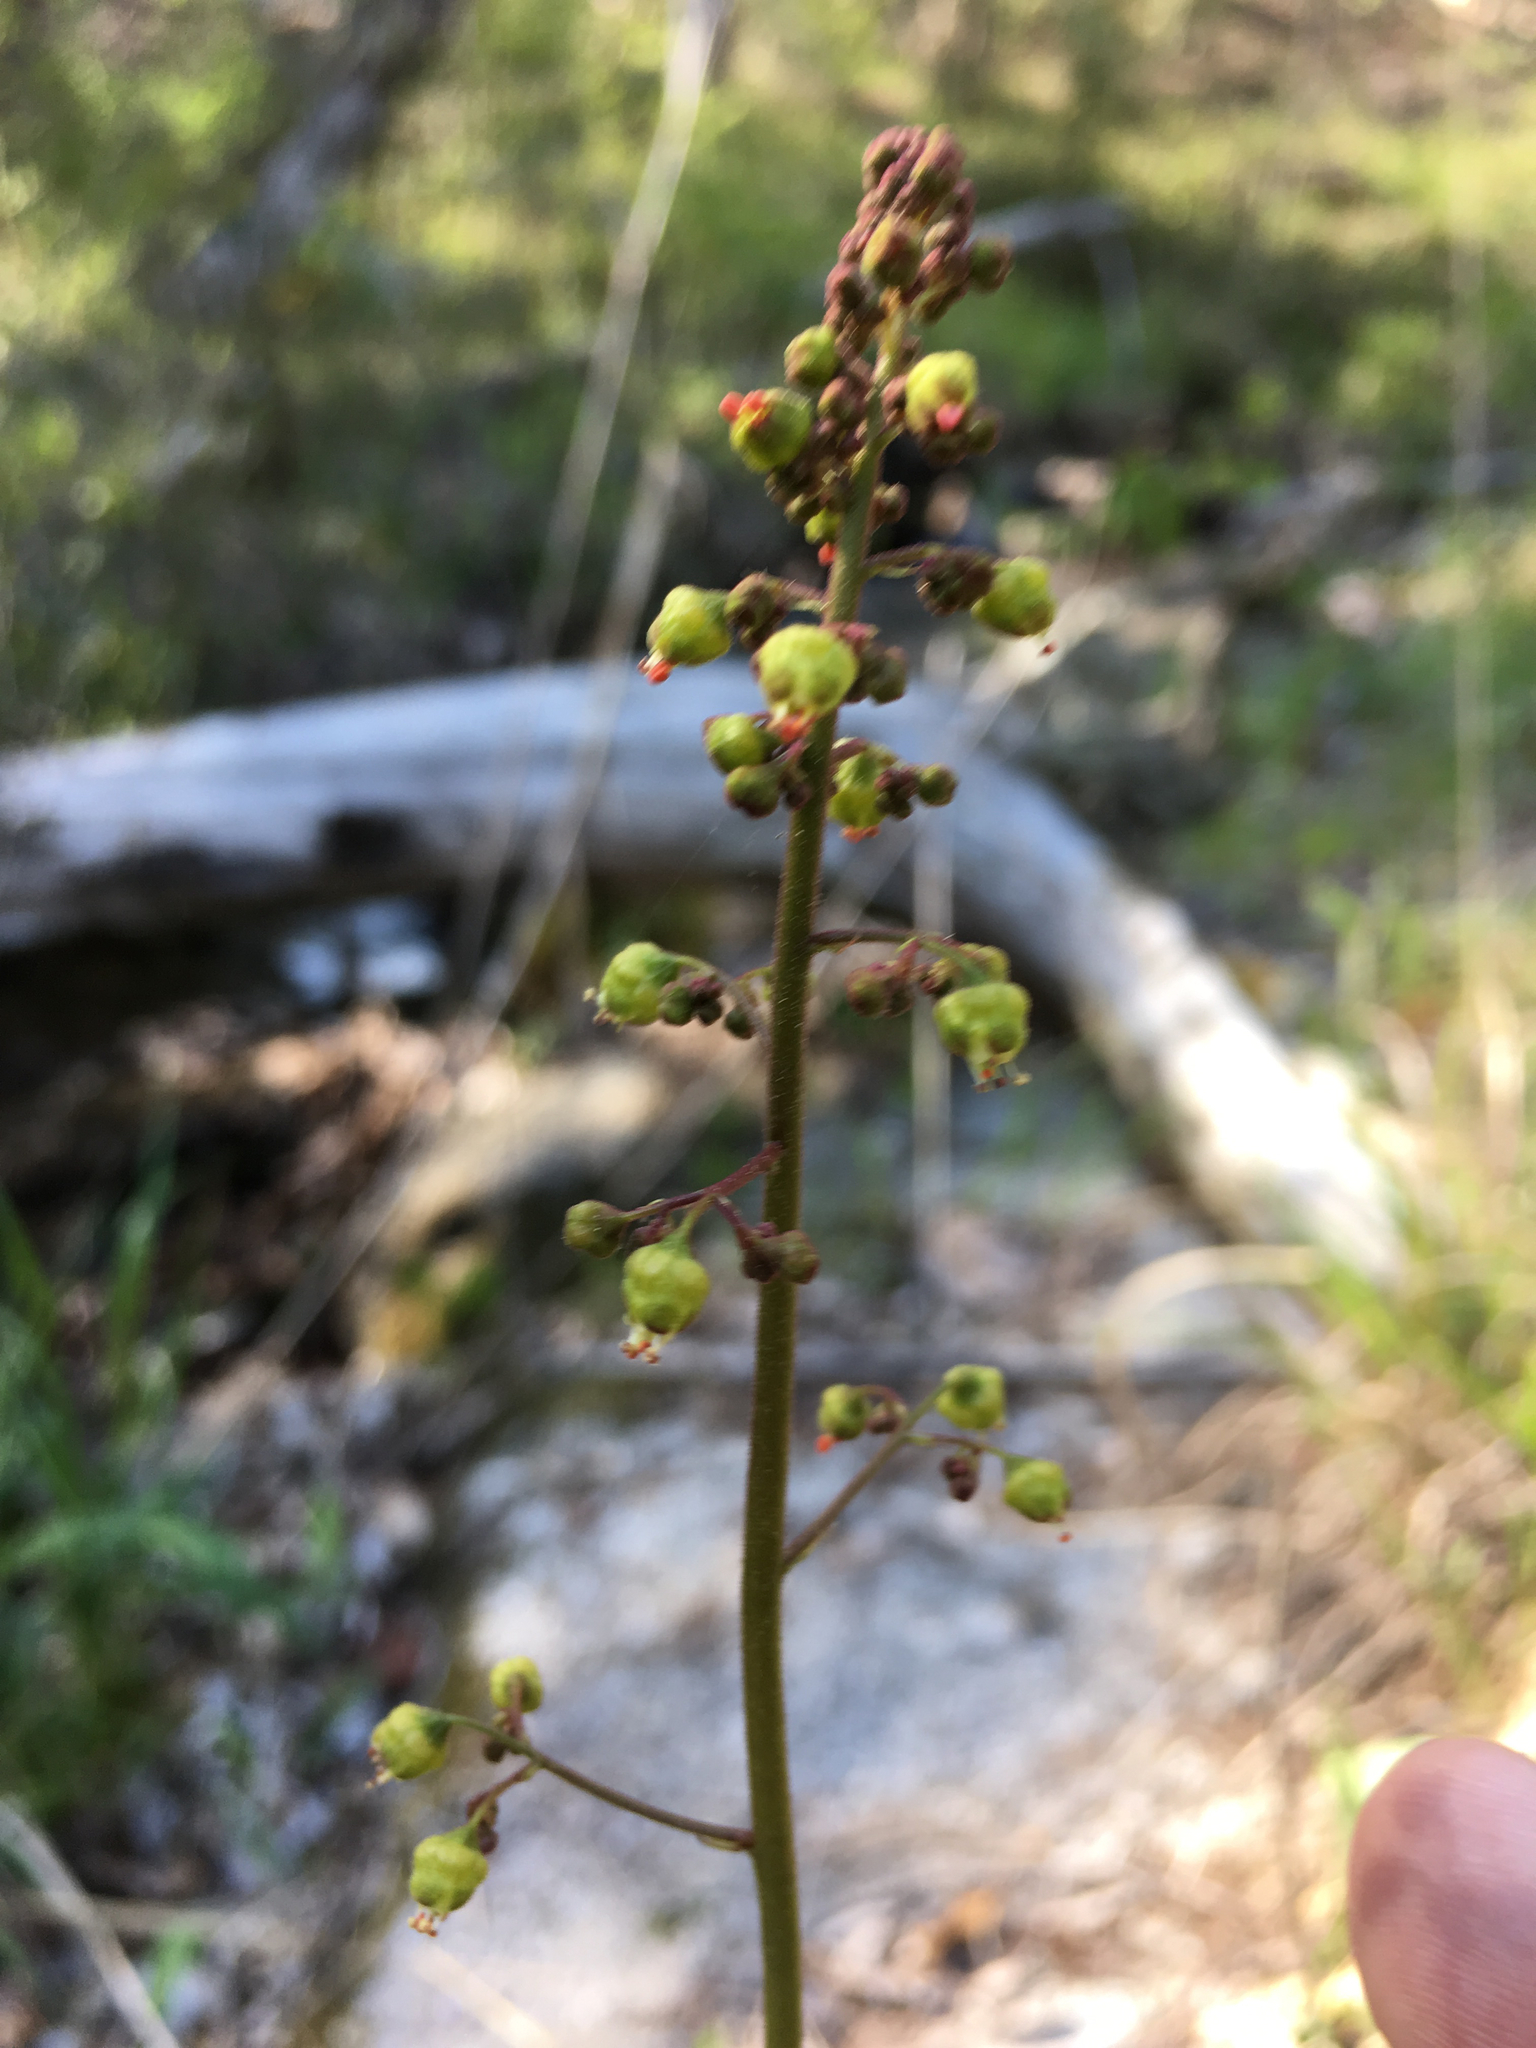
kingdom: Plantae
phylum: Tracheophyta
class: Magnoliopsida
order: Saxifragales
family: Saxifragaceae
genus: Heuchera
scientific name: Heuchera caroliniana
